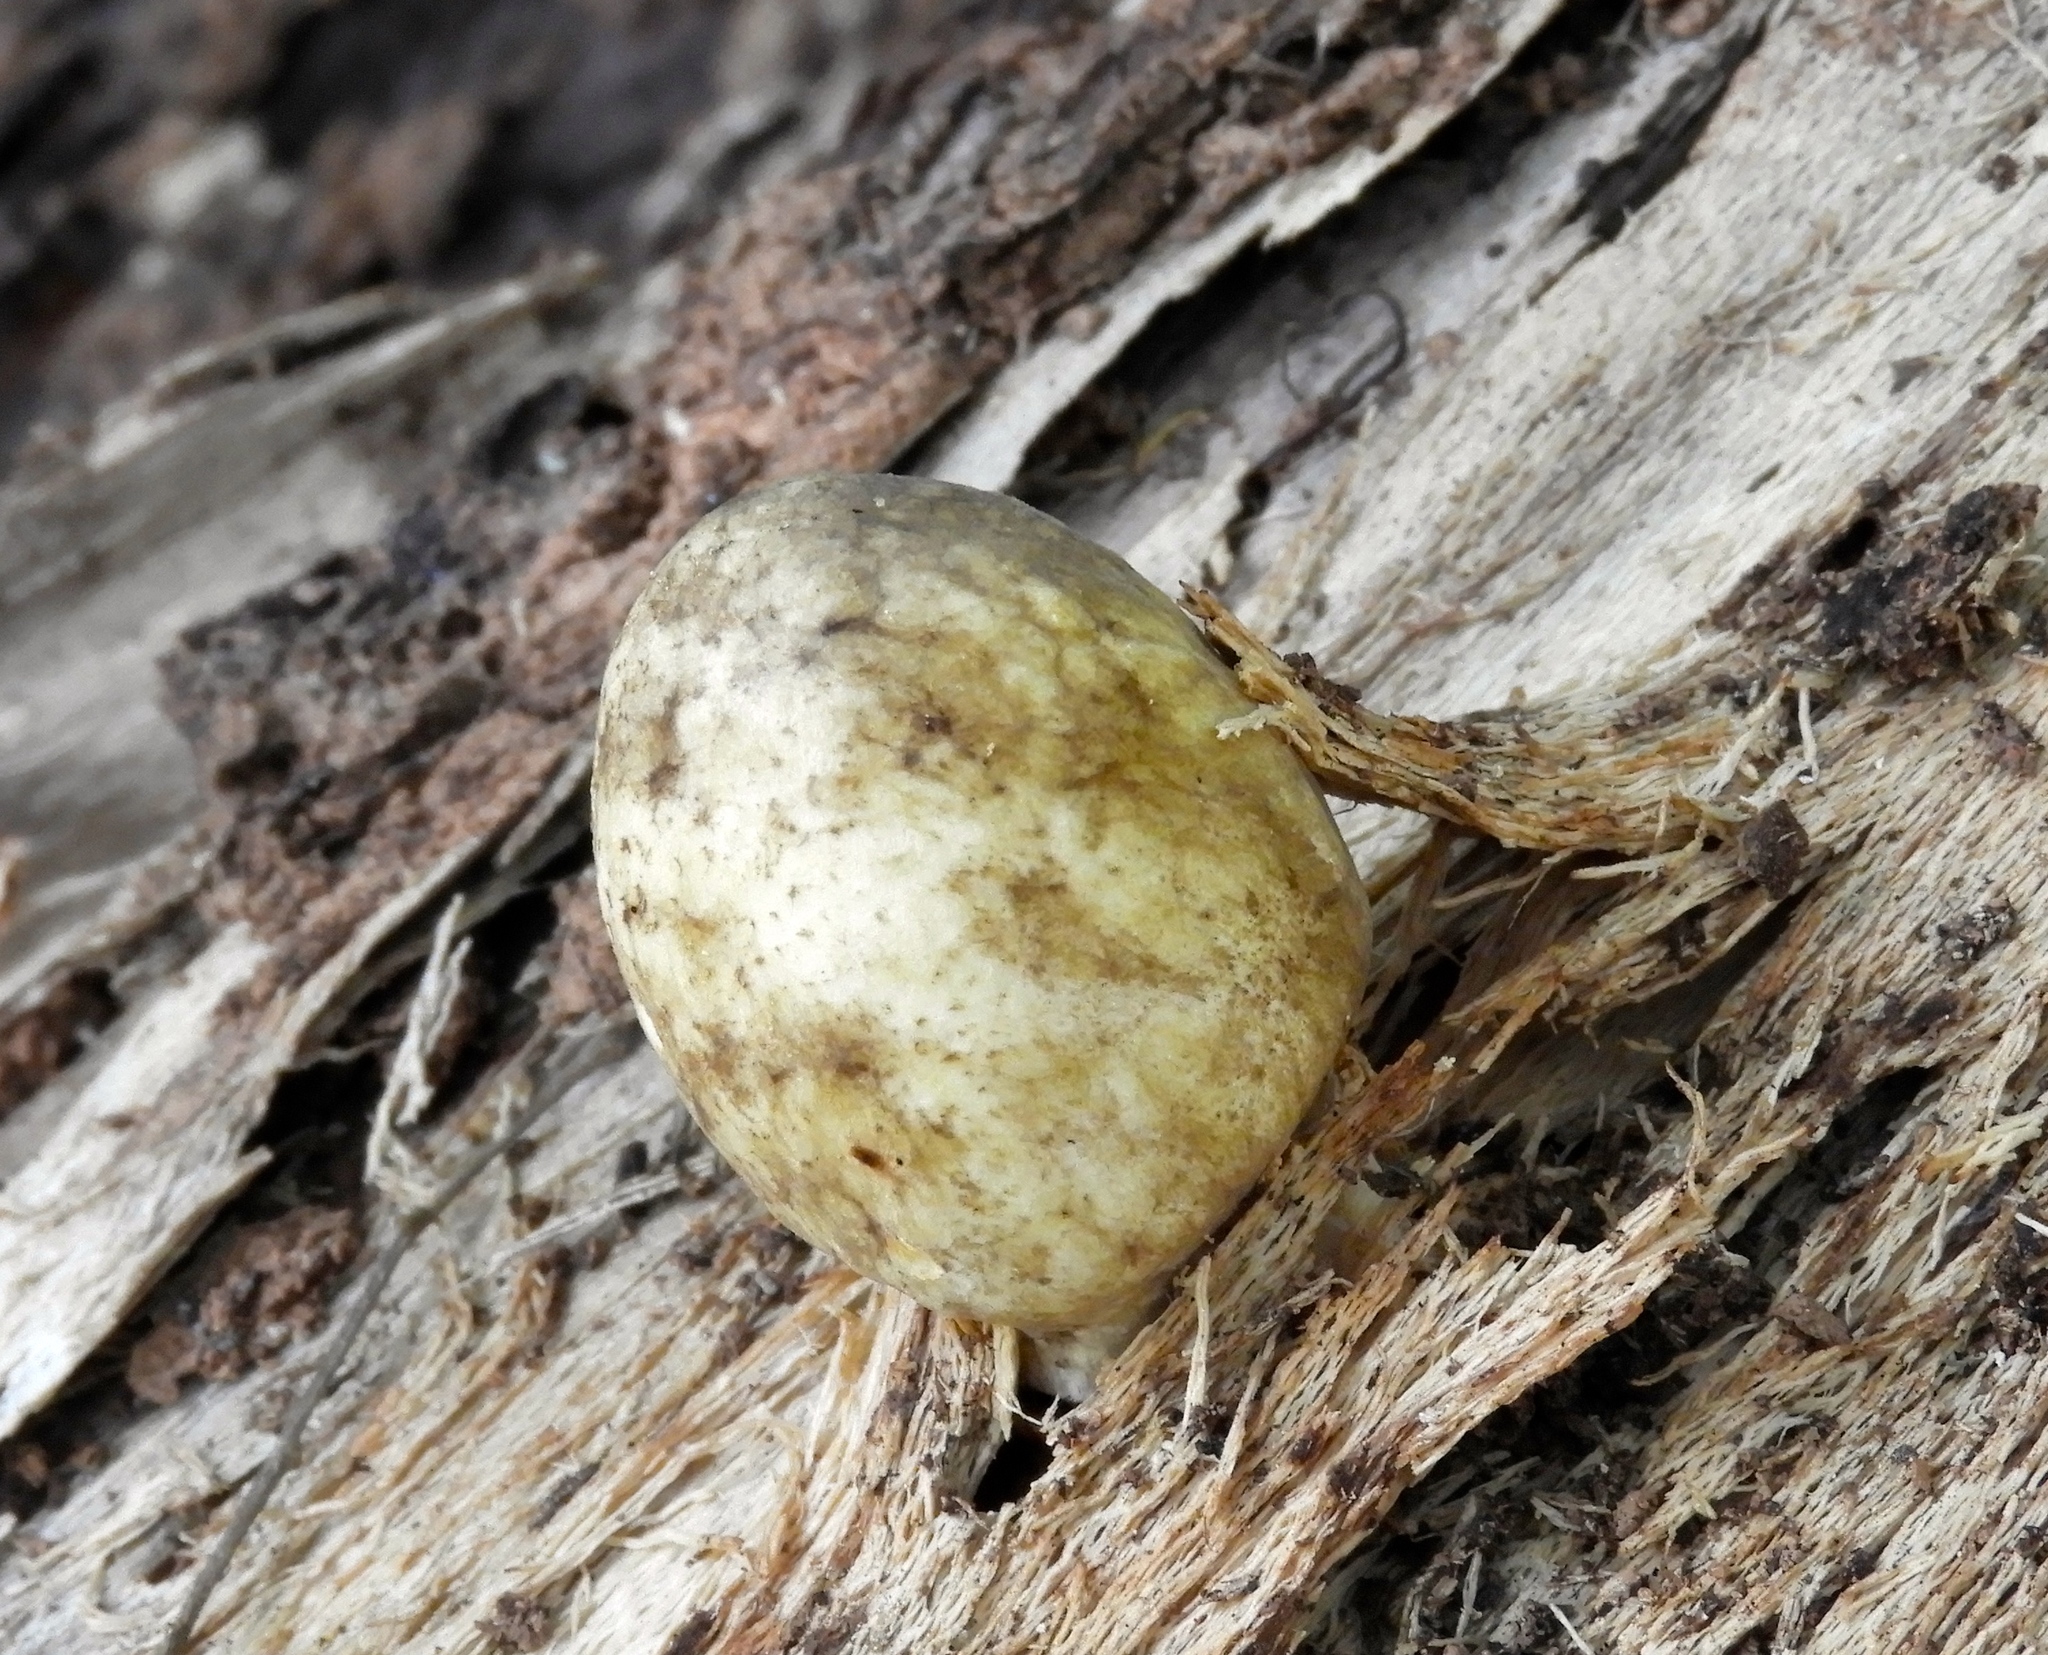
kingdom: Fungi
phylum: Basidiomycota
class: Agaricomycetes
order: Agaricales
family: Pluteaceae
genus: Volvariella
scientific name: Volvariella
